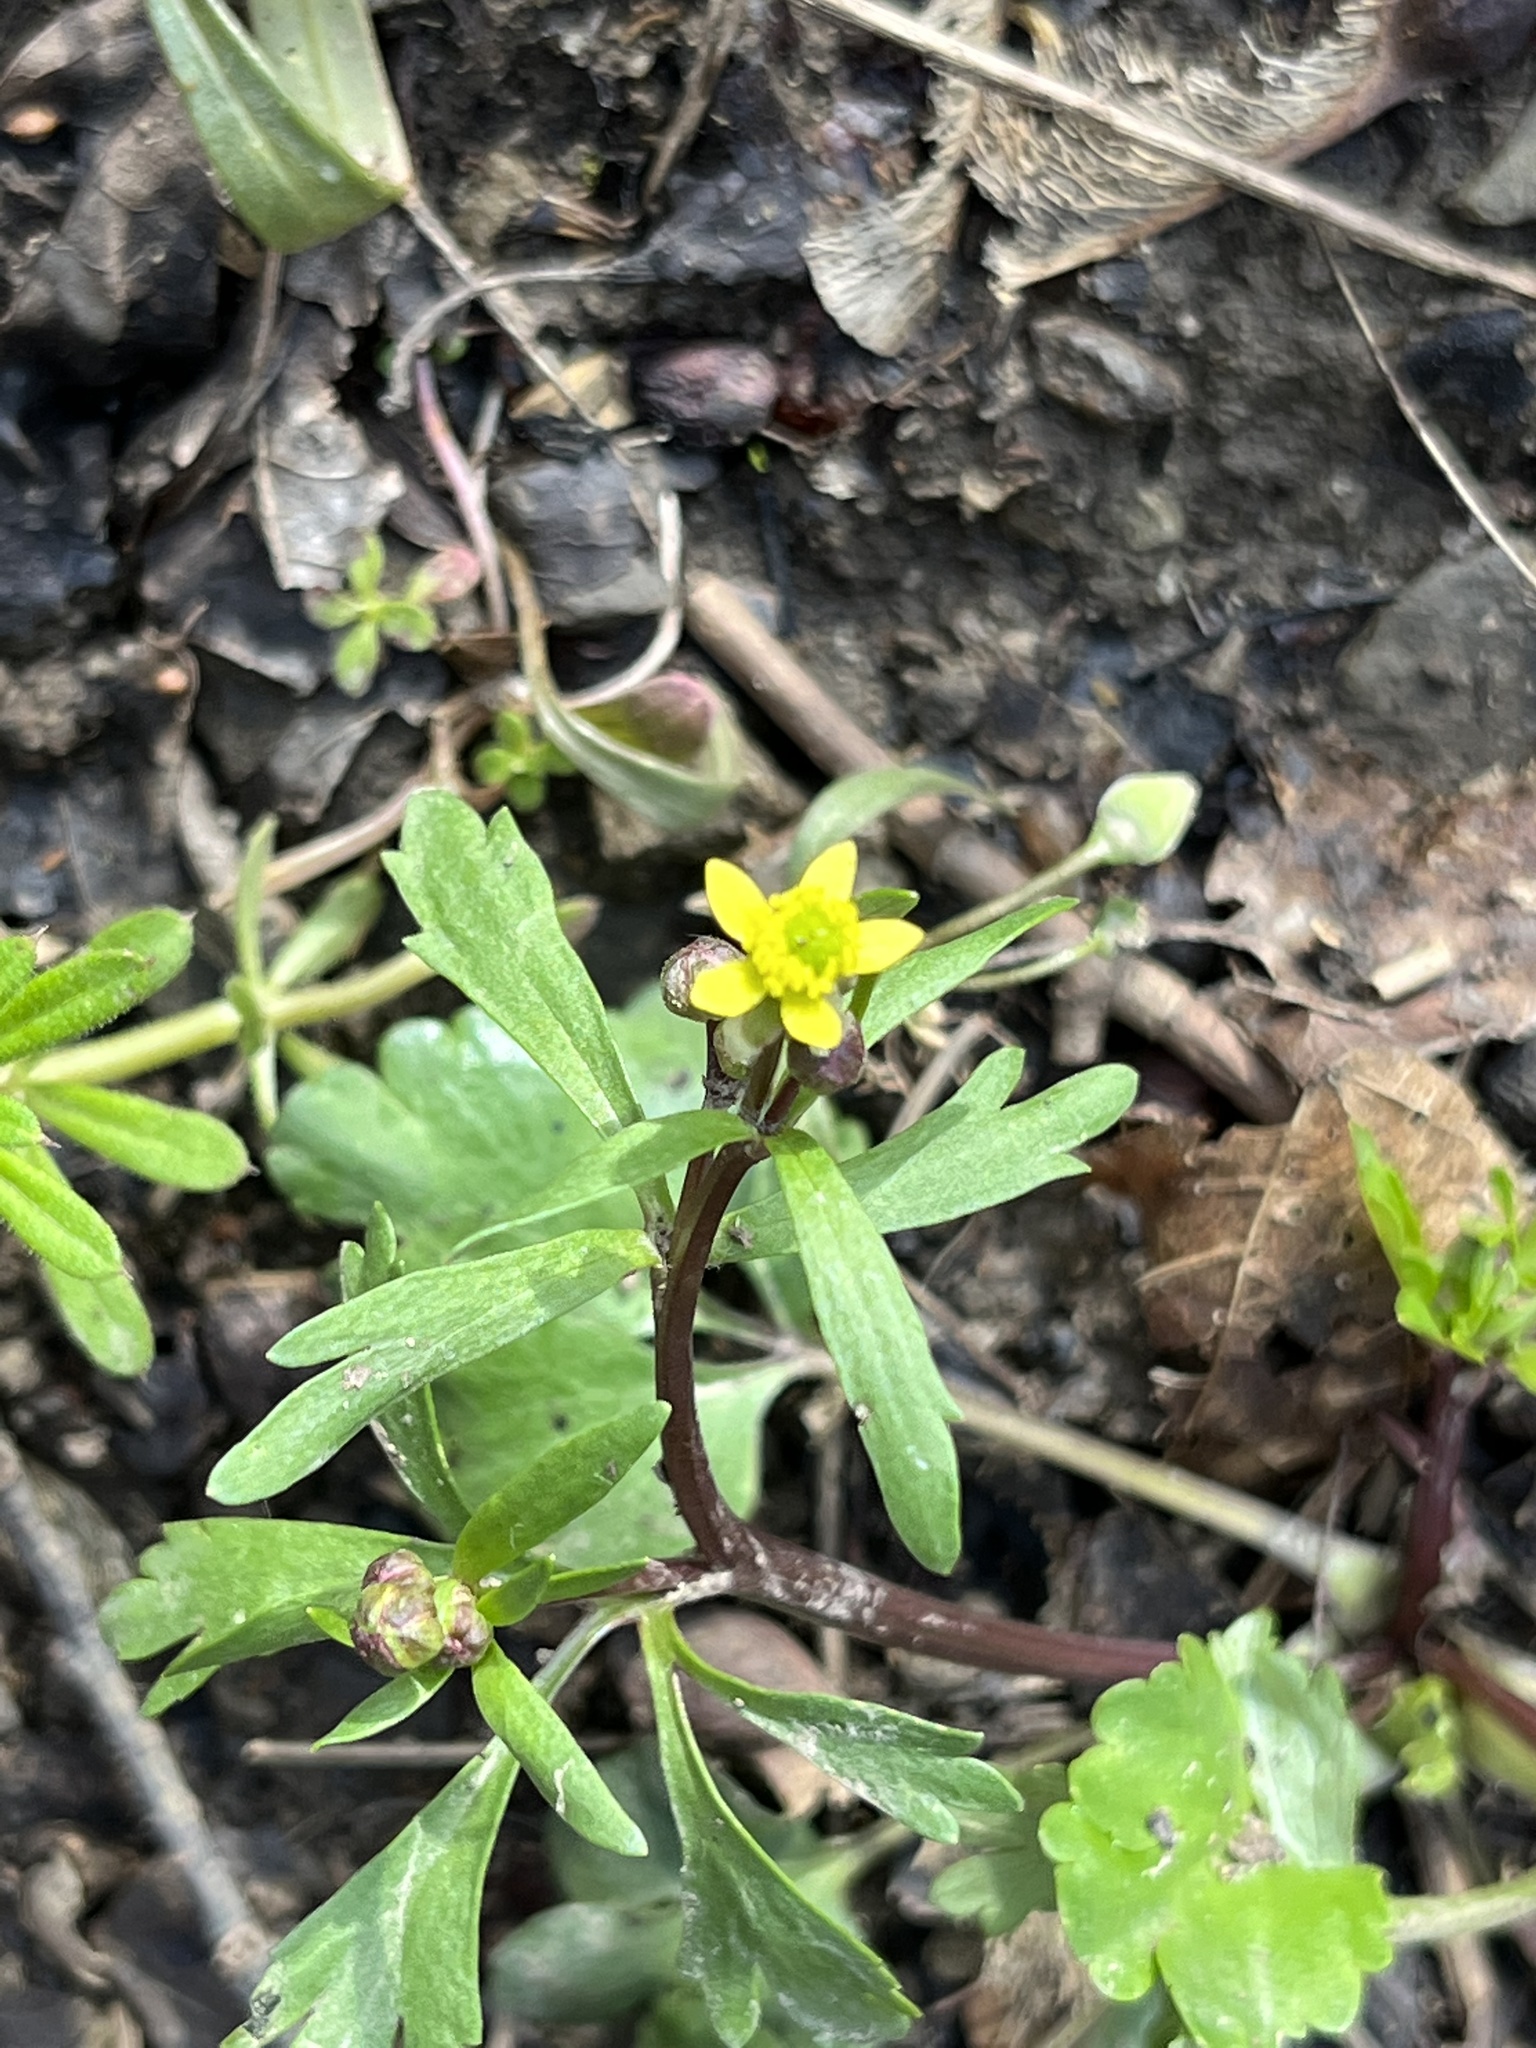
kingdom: Plantae
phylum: Tracheophyta
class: Magnoliopsida
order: Ranunculales
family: Ranunculaceae
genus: Ranunculus
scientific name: Ranunculus abortivus
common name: Early wood buttercup
